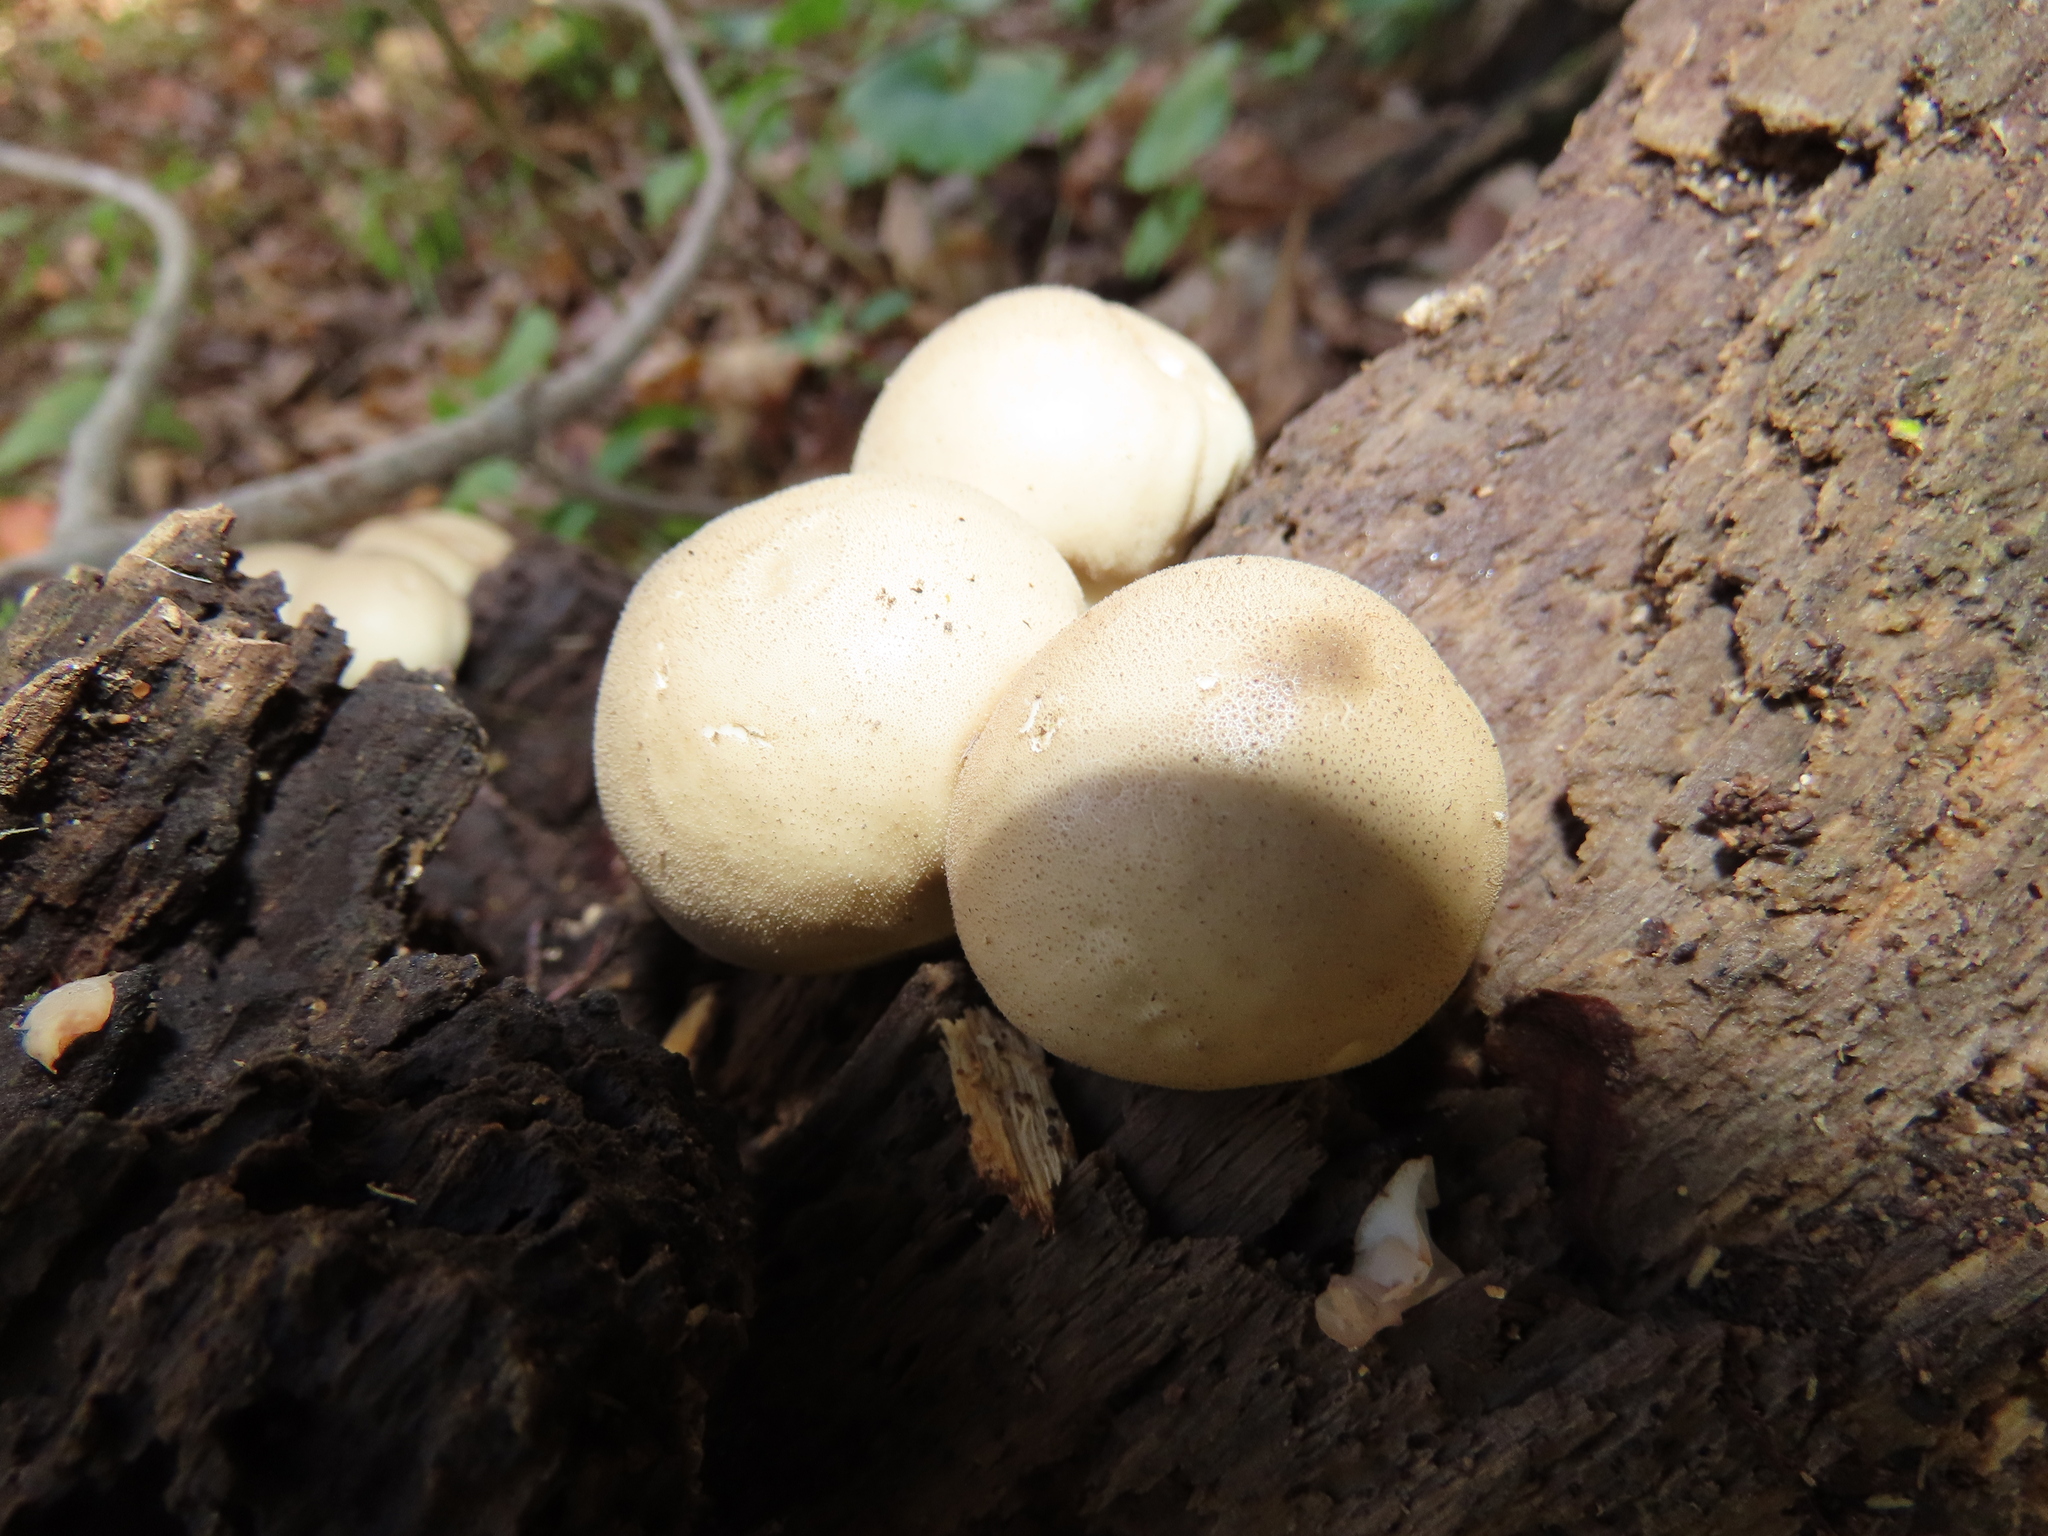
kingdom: Fungi
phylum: Basidiomycota
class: Agaricomycetes
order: Agaricales
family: Lycoperdaceae
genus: Apioperdon
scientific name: Apioperdon pyriforme
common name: Pear-shaped puffball
